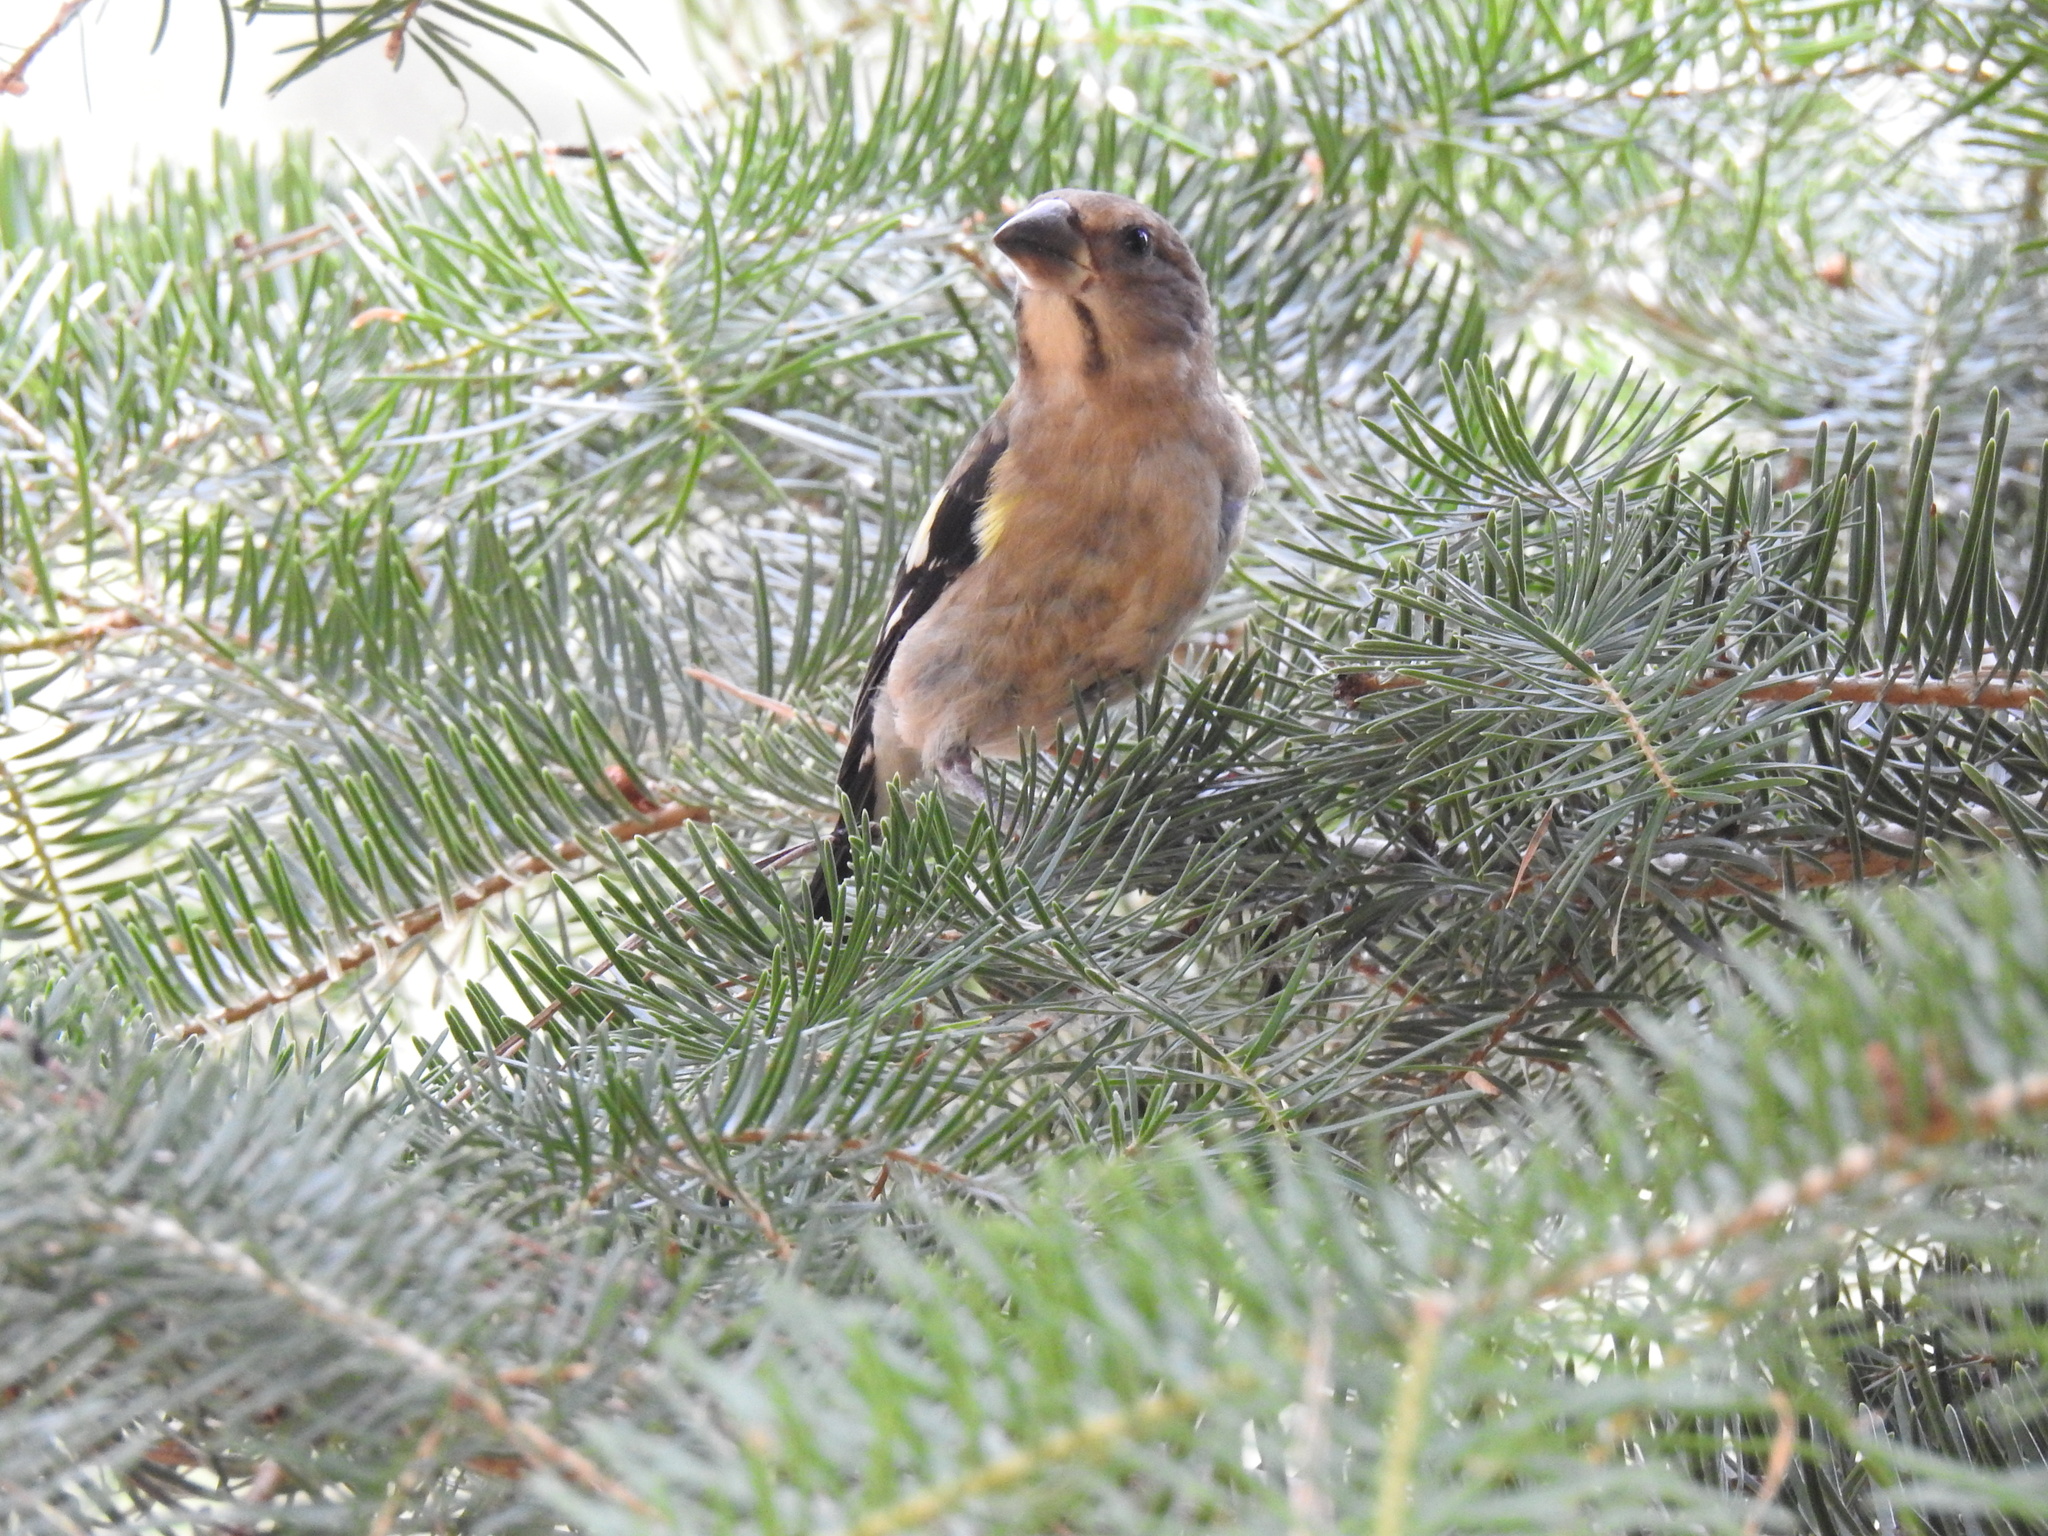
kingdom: Animalia
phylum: Chordata
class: Aves
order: Passeriformes
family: Fringillidae
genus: Hesperiphona
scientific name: Hesperiphona vespertina
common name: Evening grosbeak
